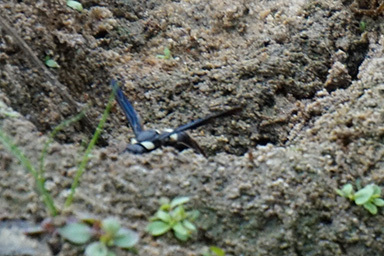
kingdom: Animalia
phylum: Arthropoda
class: Insecta
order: Hymenoptera
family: Eumenidae
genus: Monobia
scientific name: Monobia quadridens
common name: Four-toothed mason wasp
